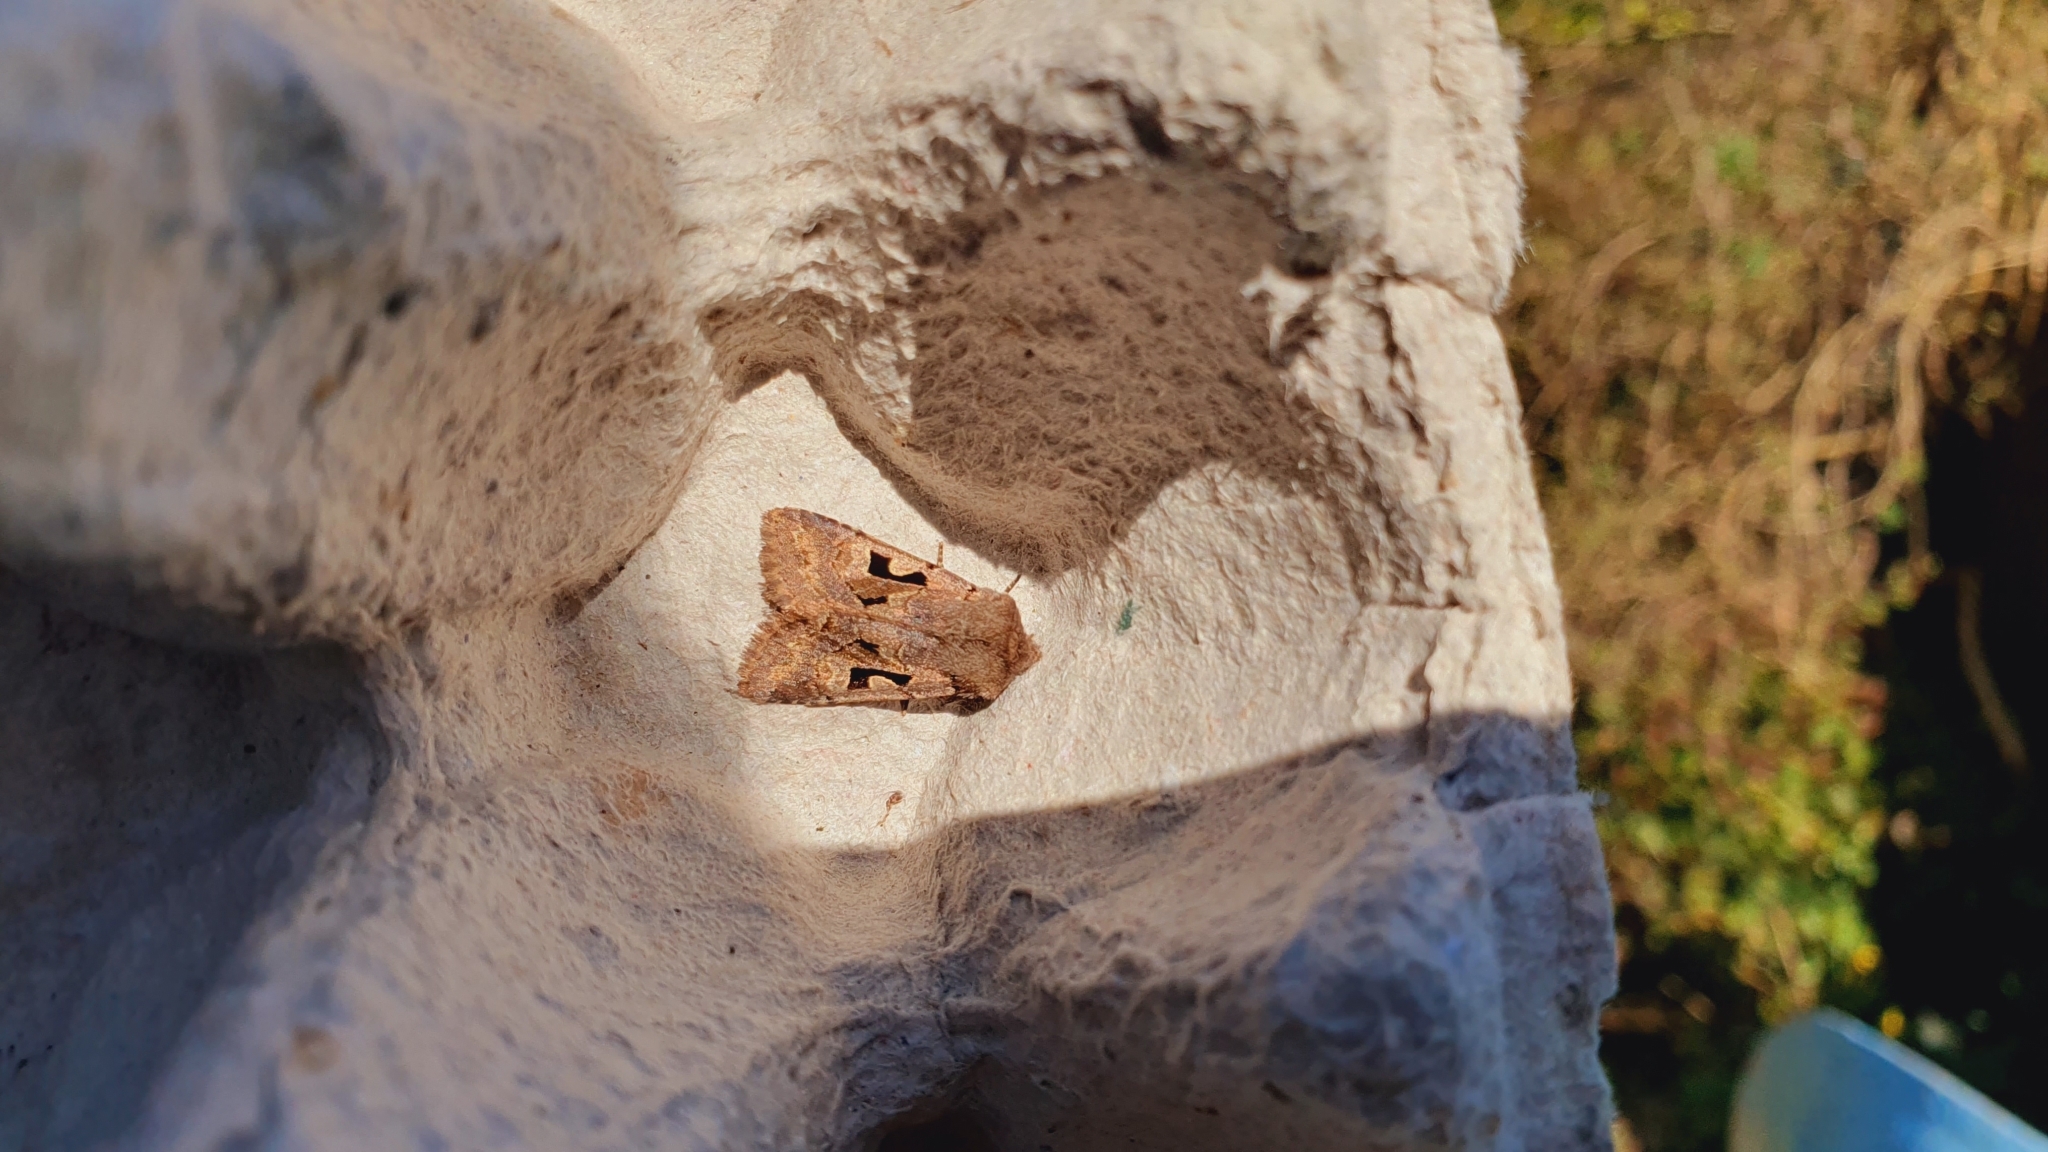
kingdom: Animalia
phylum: Arthropoda
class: Insecta
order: Lepidoptera
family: Noctuidae
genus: Orthosia
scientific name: Orthosia gothica
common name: Hebrew character
